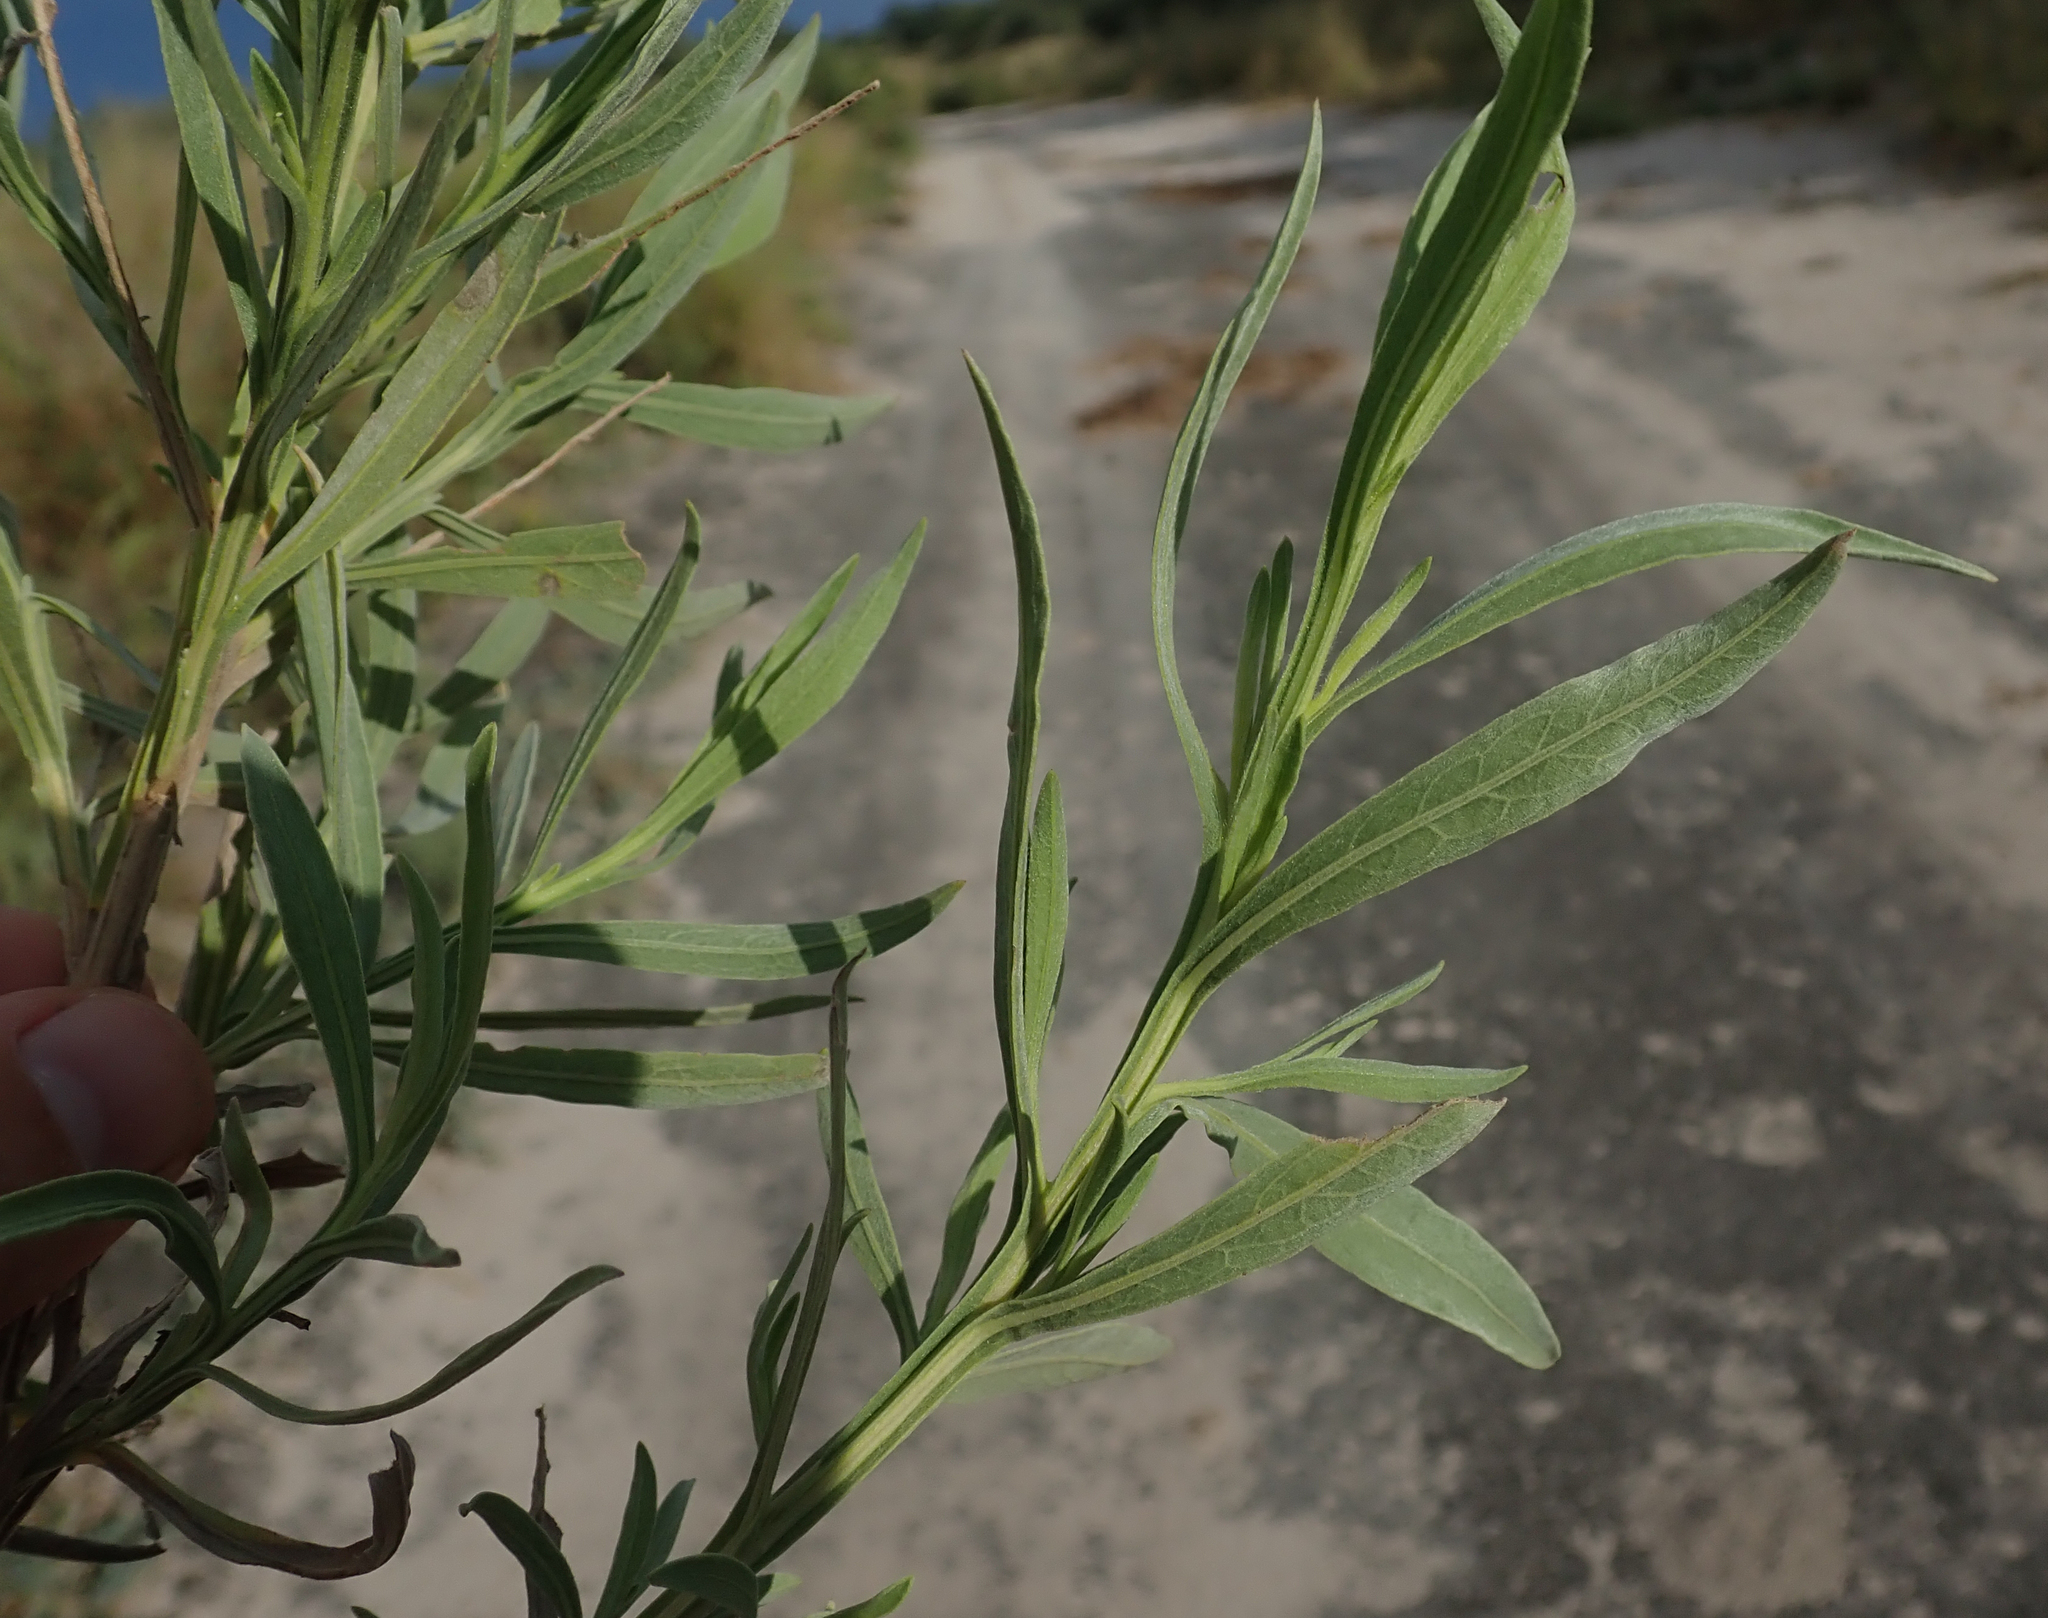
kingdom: Plantae
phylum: Tracheophyta
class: Magnoliopsida
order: Asterales
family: Asteraceae
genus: Pechuel-loeschea
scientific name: Pechuel-loeschea leubnitziae
